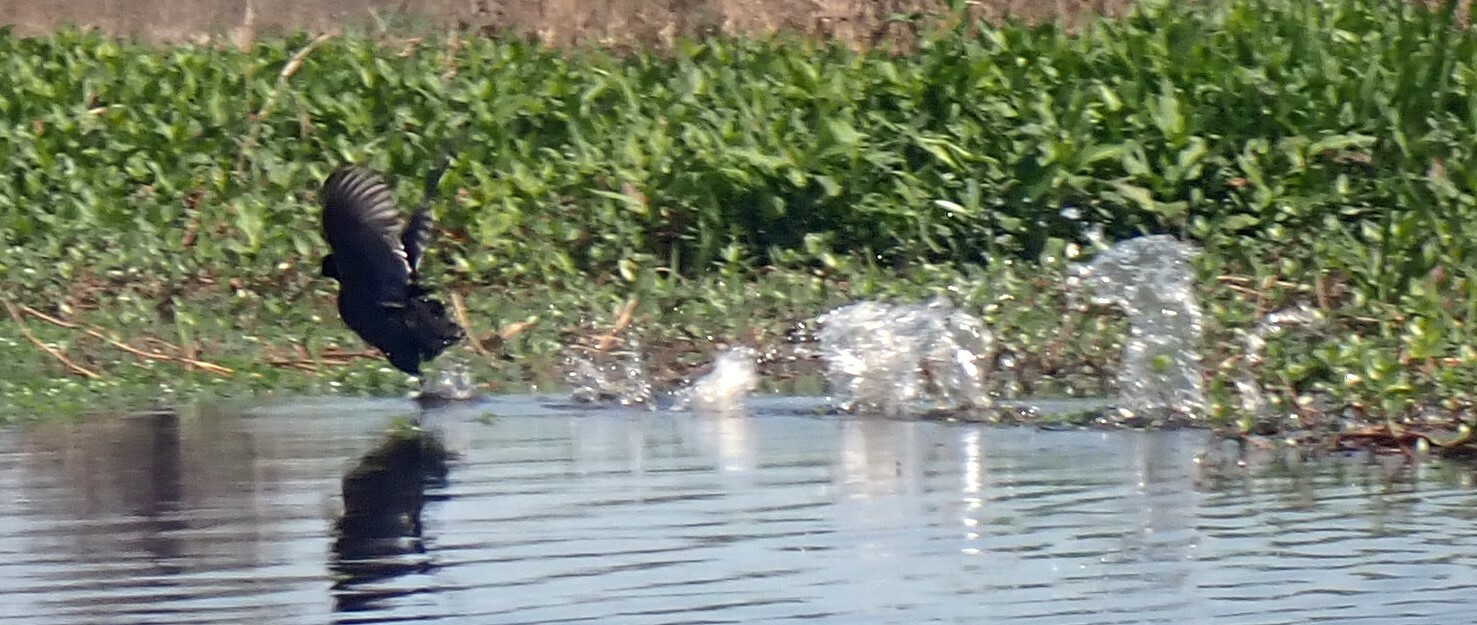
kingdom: Animalia
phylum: Chordata
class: Aves
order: Gruiformes
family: Rallidae
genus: Fulica
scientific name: Fulica americana
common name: American coot
